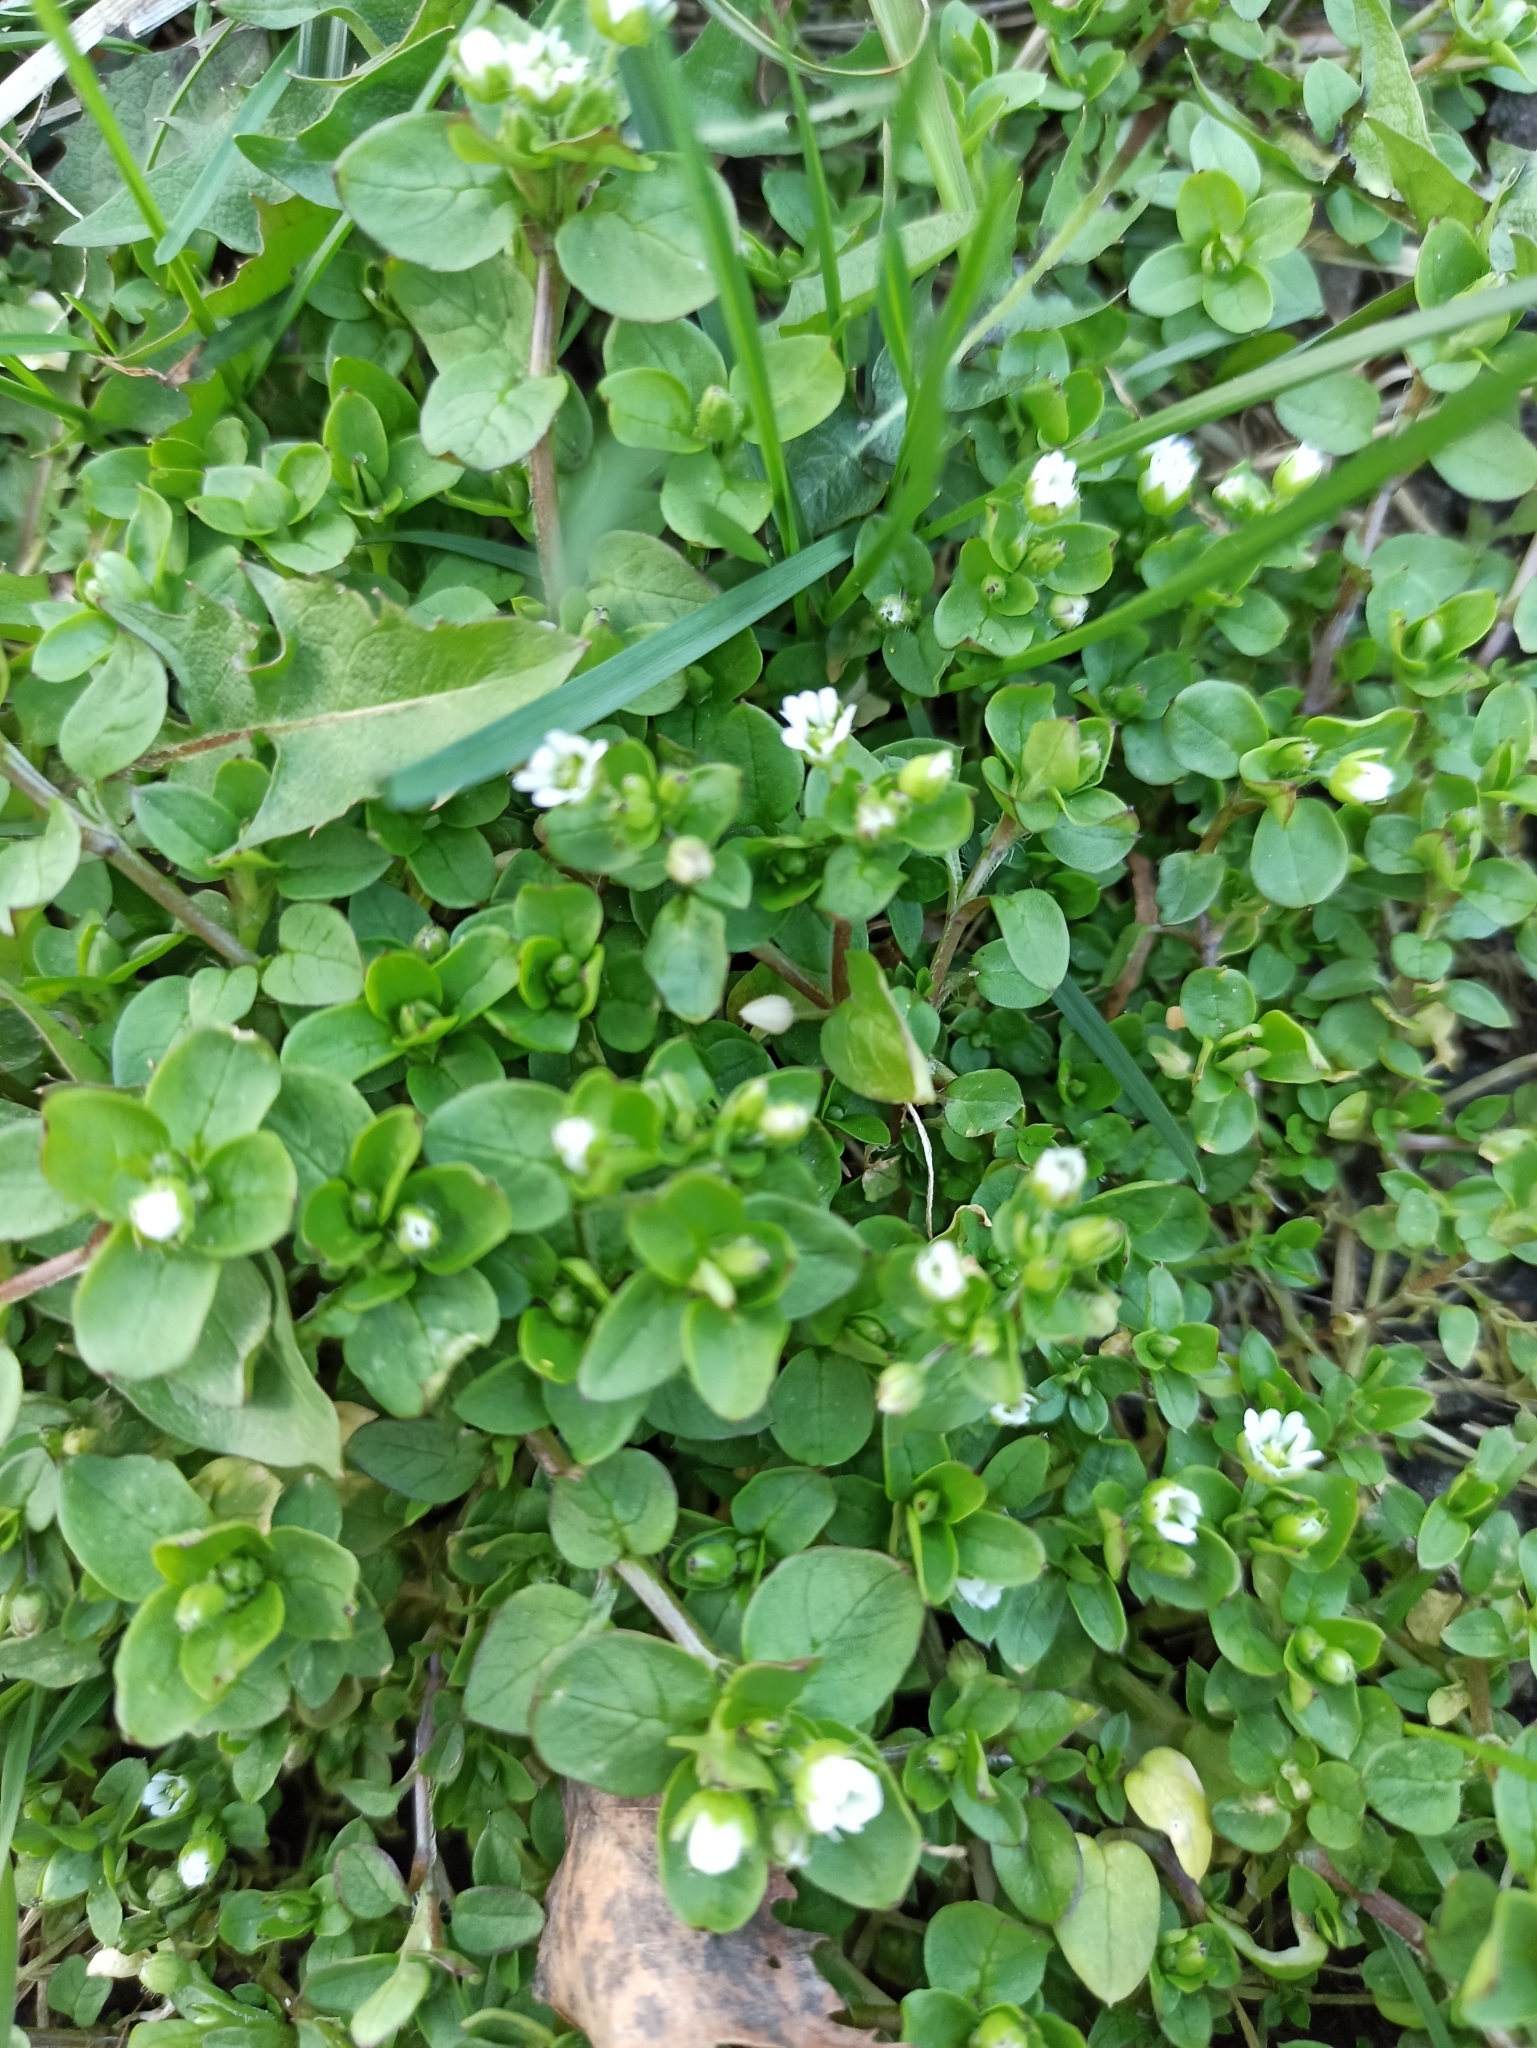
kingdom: Plantae
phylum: Tracheophyta
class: Magnoliopsida
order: Caryophyllales
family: Caryophyllaceae
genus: Stellaria
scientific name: Stellaria media
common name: Common chickweed
